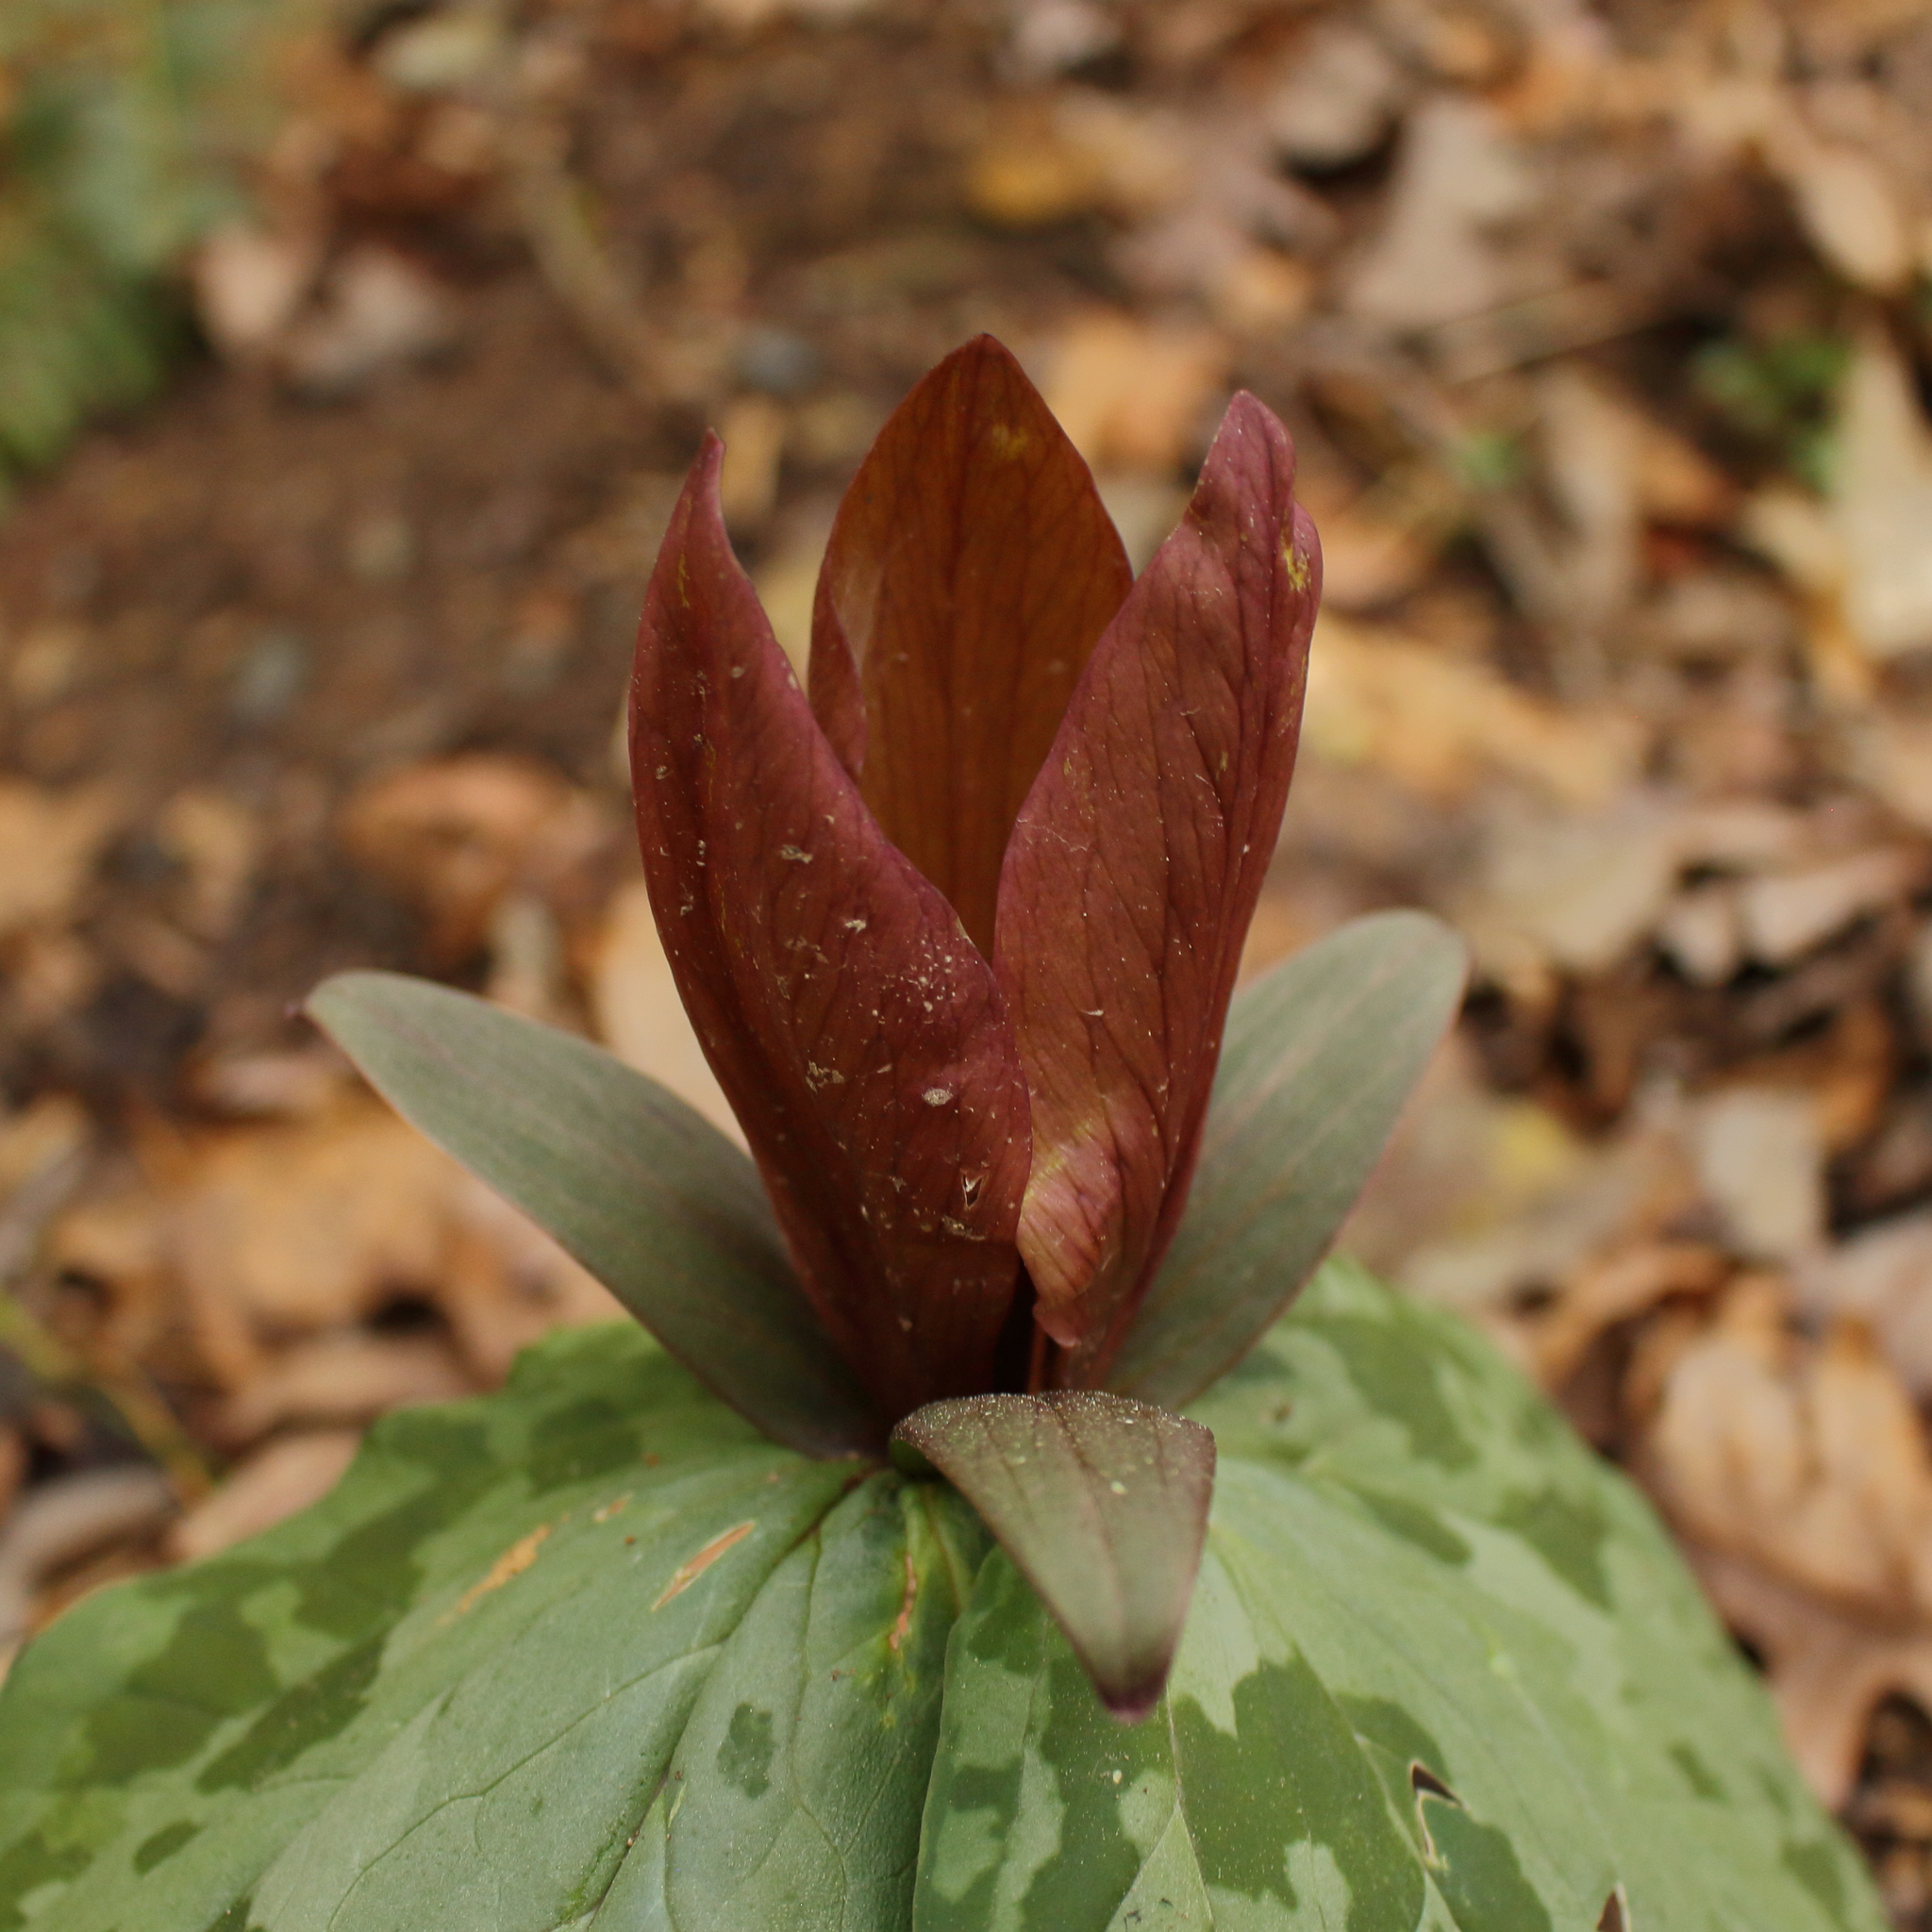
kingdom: Plantae
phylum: Tracheophyta
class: Liliopsida
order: Liliales
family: Melanthiaceae
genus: Trillium
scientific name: Trillium cuneatum
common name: Cuneate trillium
